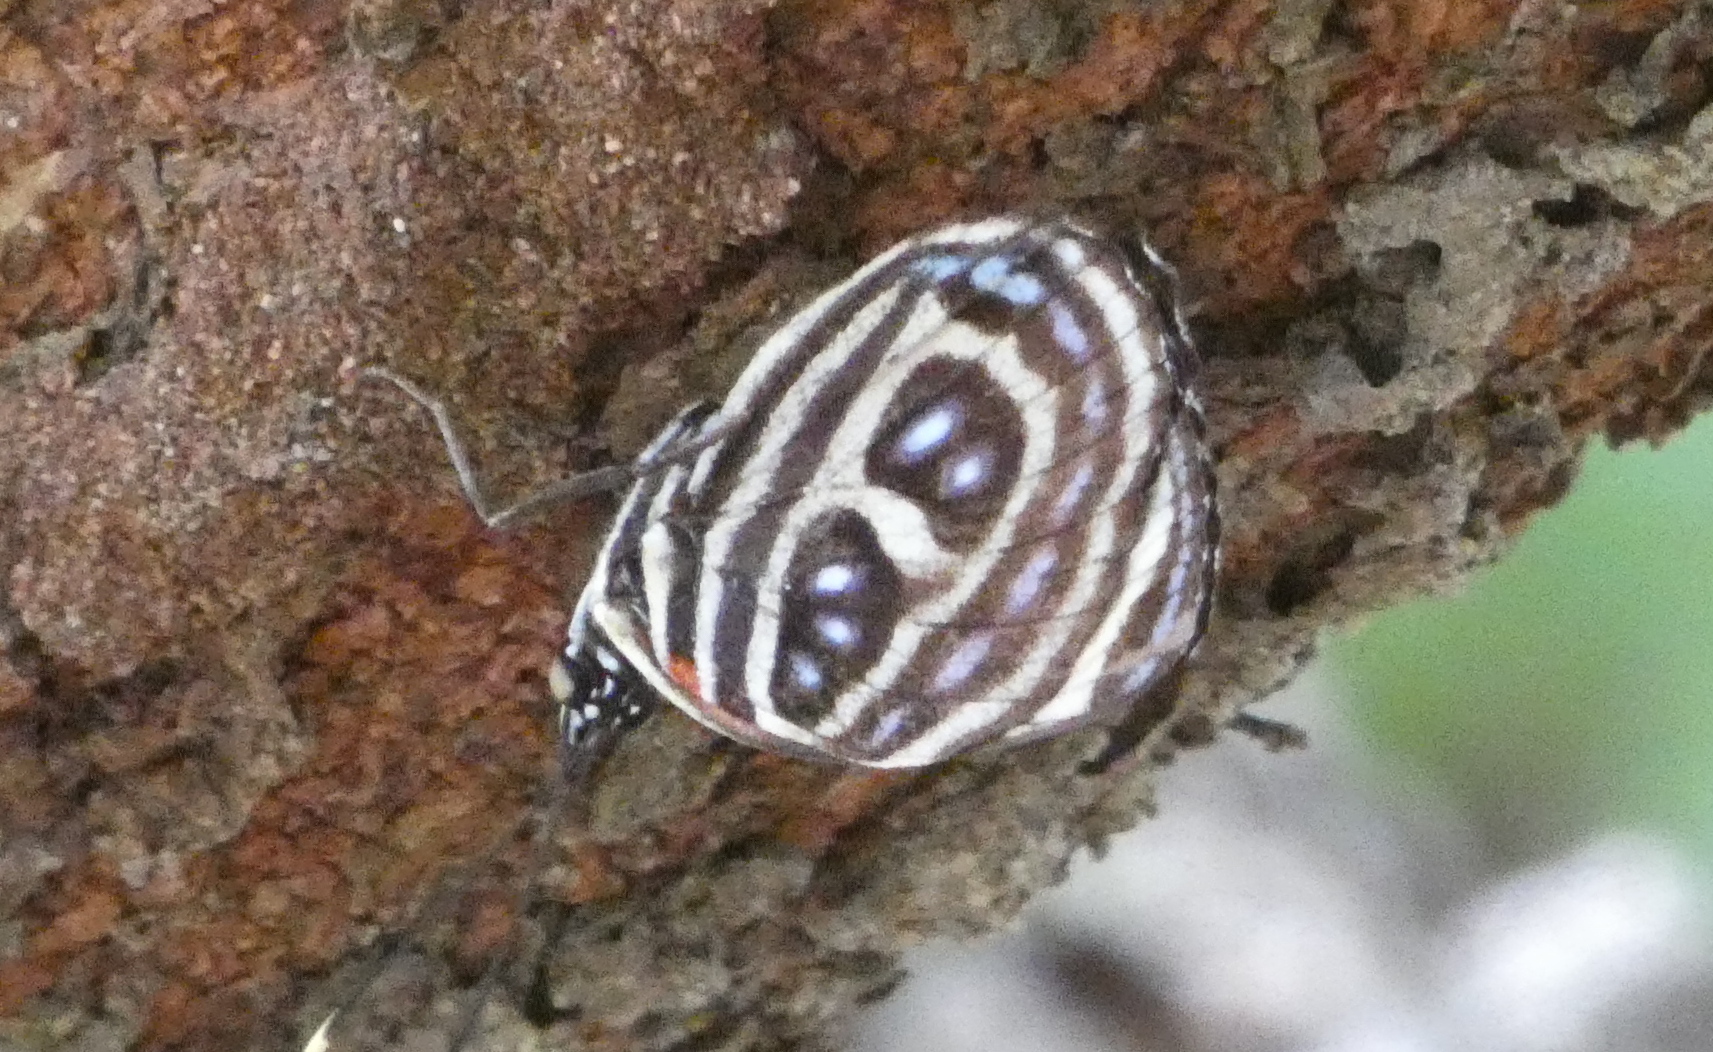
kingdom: Animalia
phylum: Arthropoda
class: Insecta
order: Lepidoptera
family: Nymphalidae
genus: Catagramma
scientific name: Catagramma pygas
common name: Godart's numberwing
